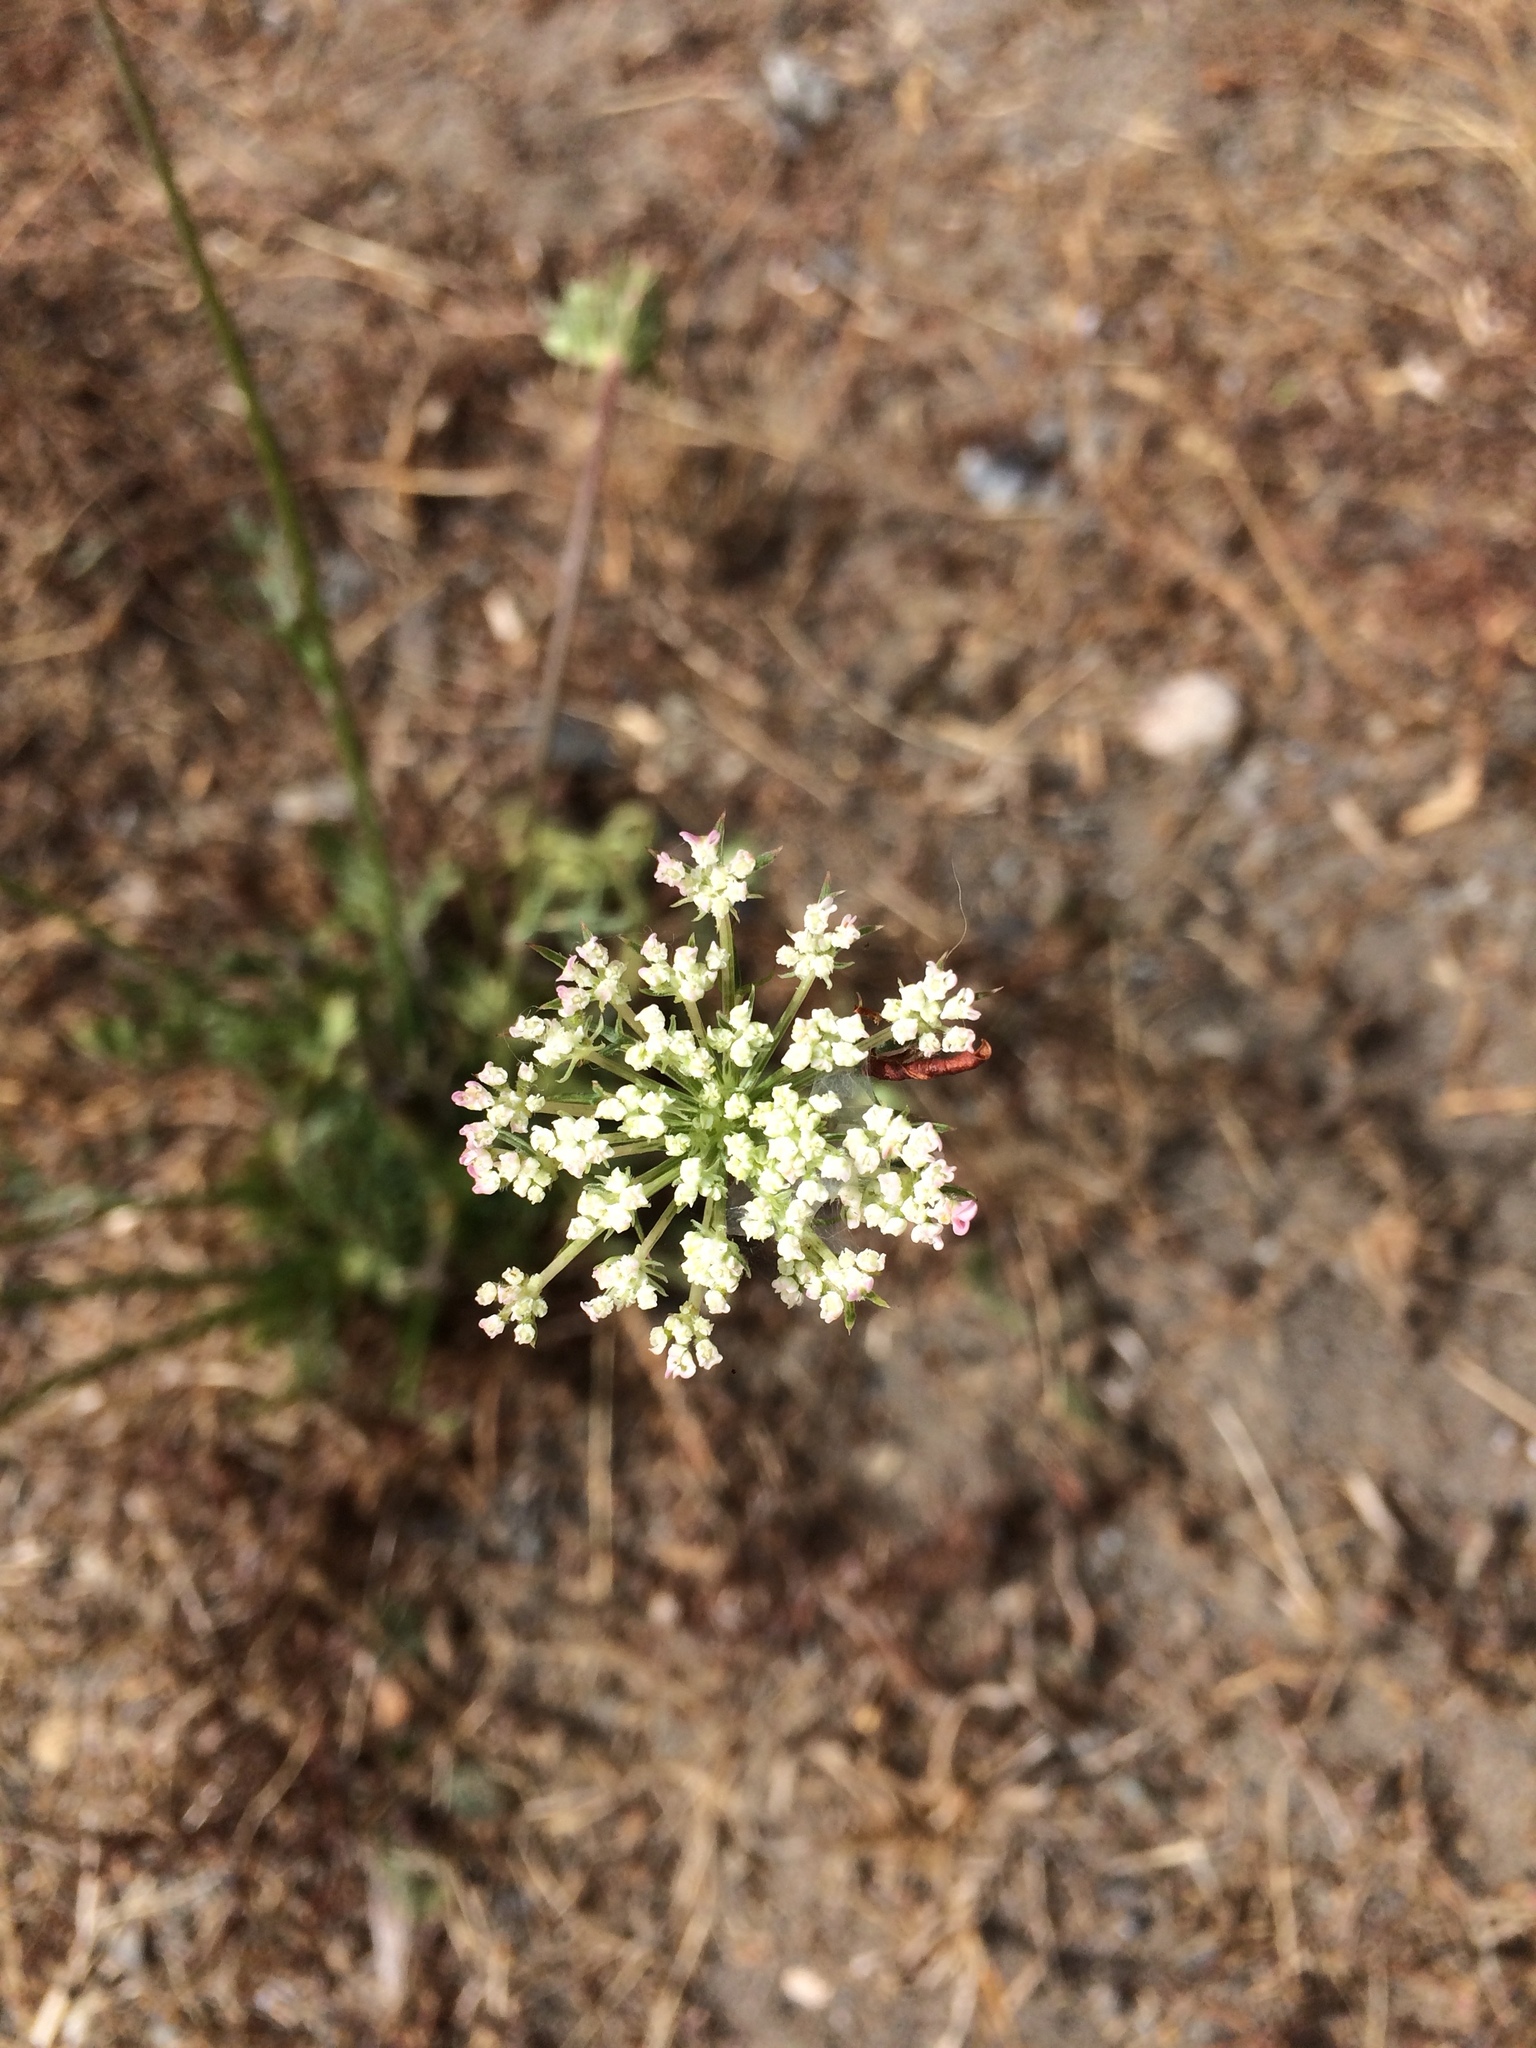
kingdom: Plantae
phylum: Tracheophyta
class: Magnoliopsida
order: Apiales
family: Apiaceae
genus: Daucus
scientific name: Daucus carota
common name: Wild carrot
